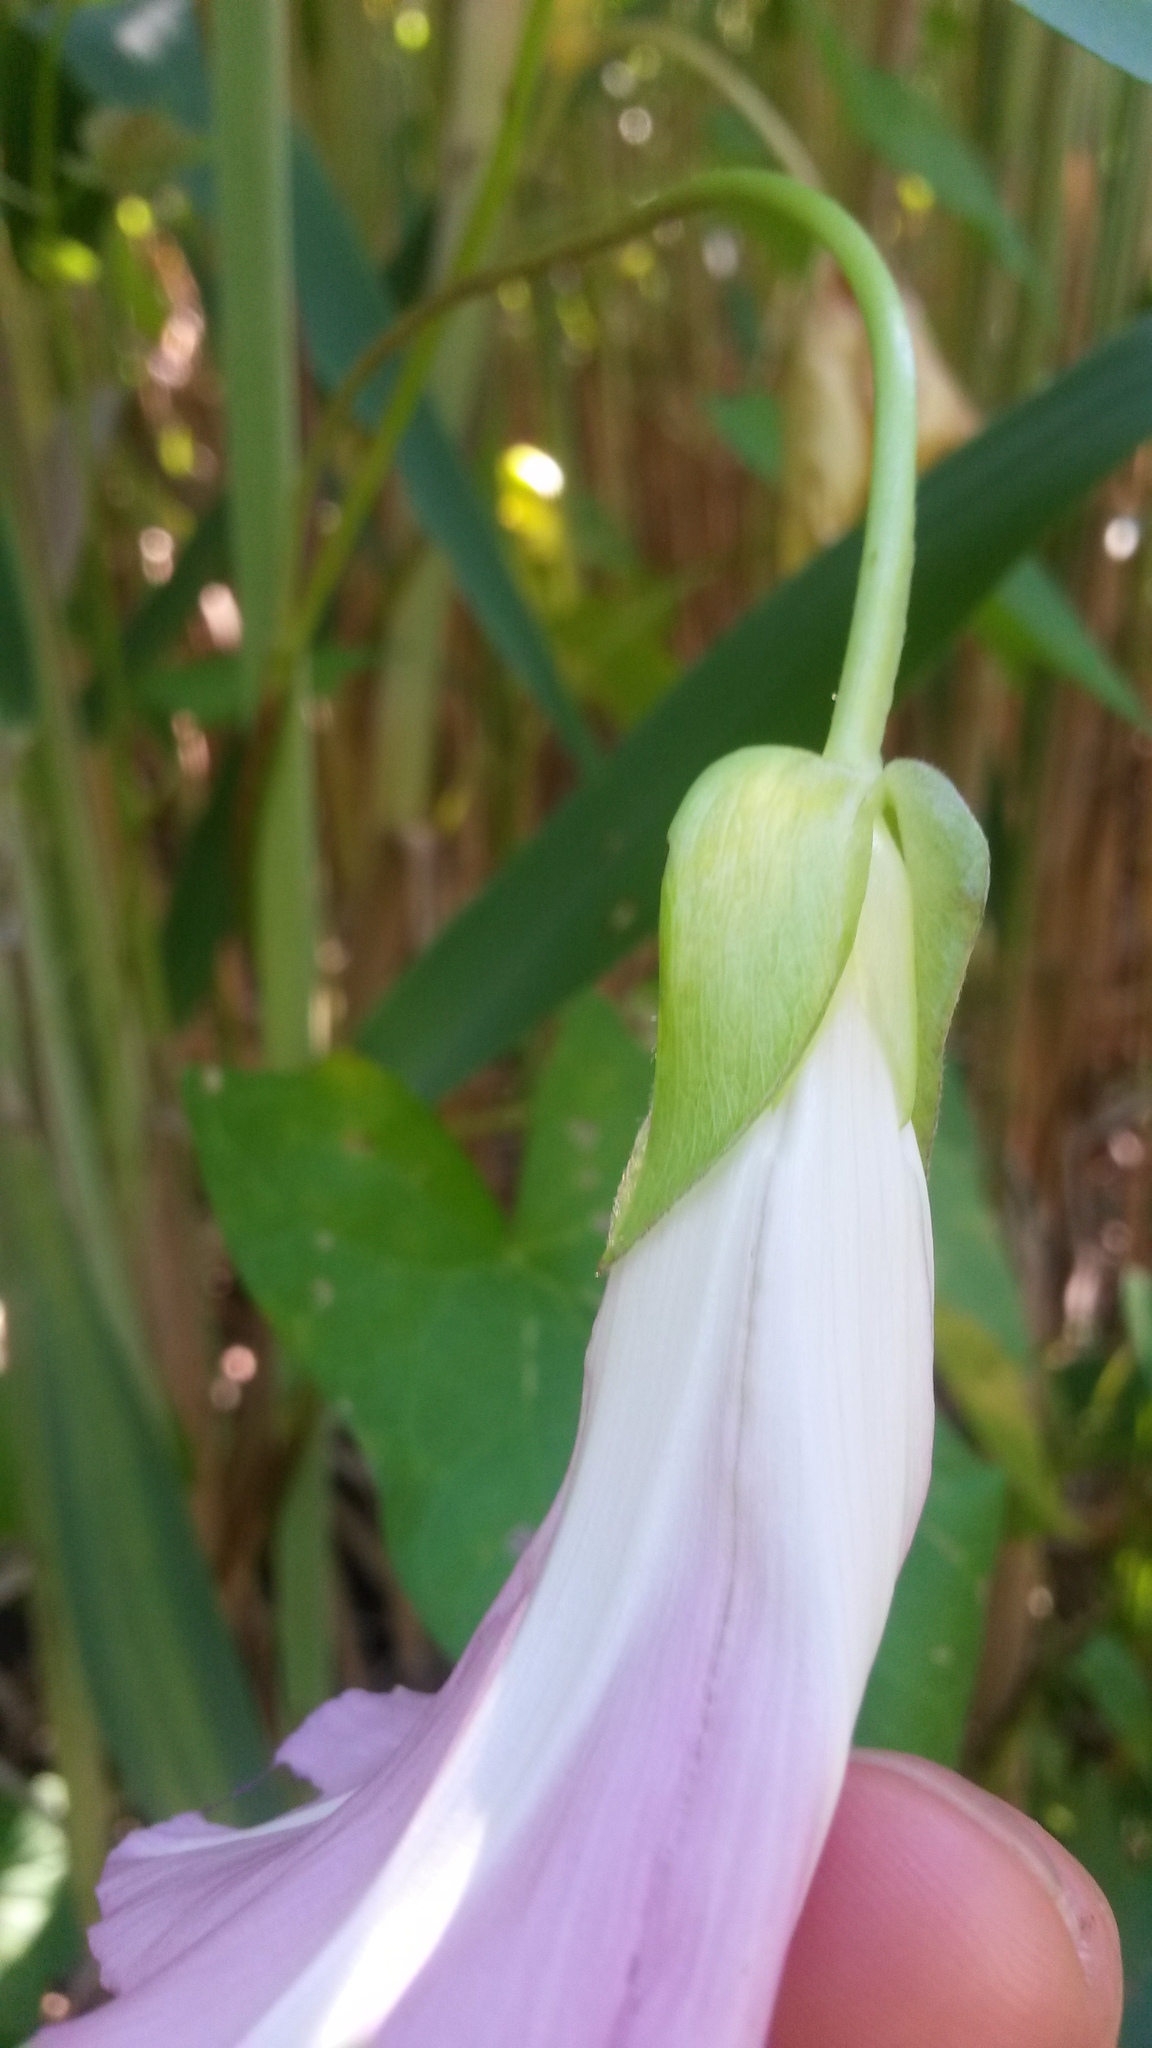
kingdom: Plantae
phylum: Tracheophyta
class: Magnoliopsida
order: Solanales
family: Convolvulaceae
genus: Calystegia
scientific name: Calystegia sepium
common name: Hedge bindweed
